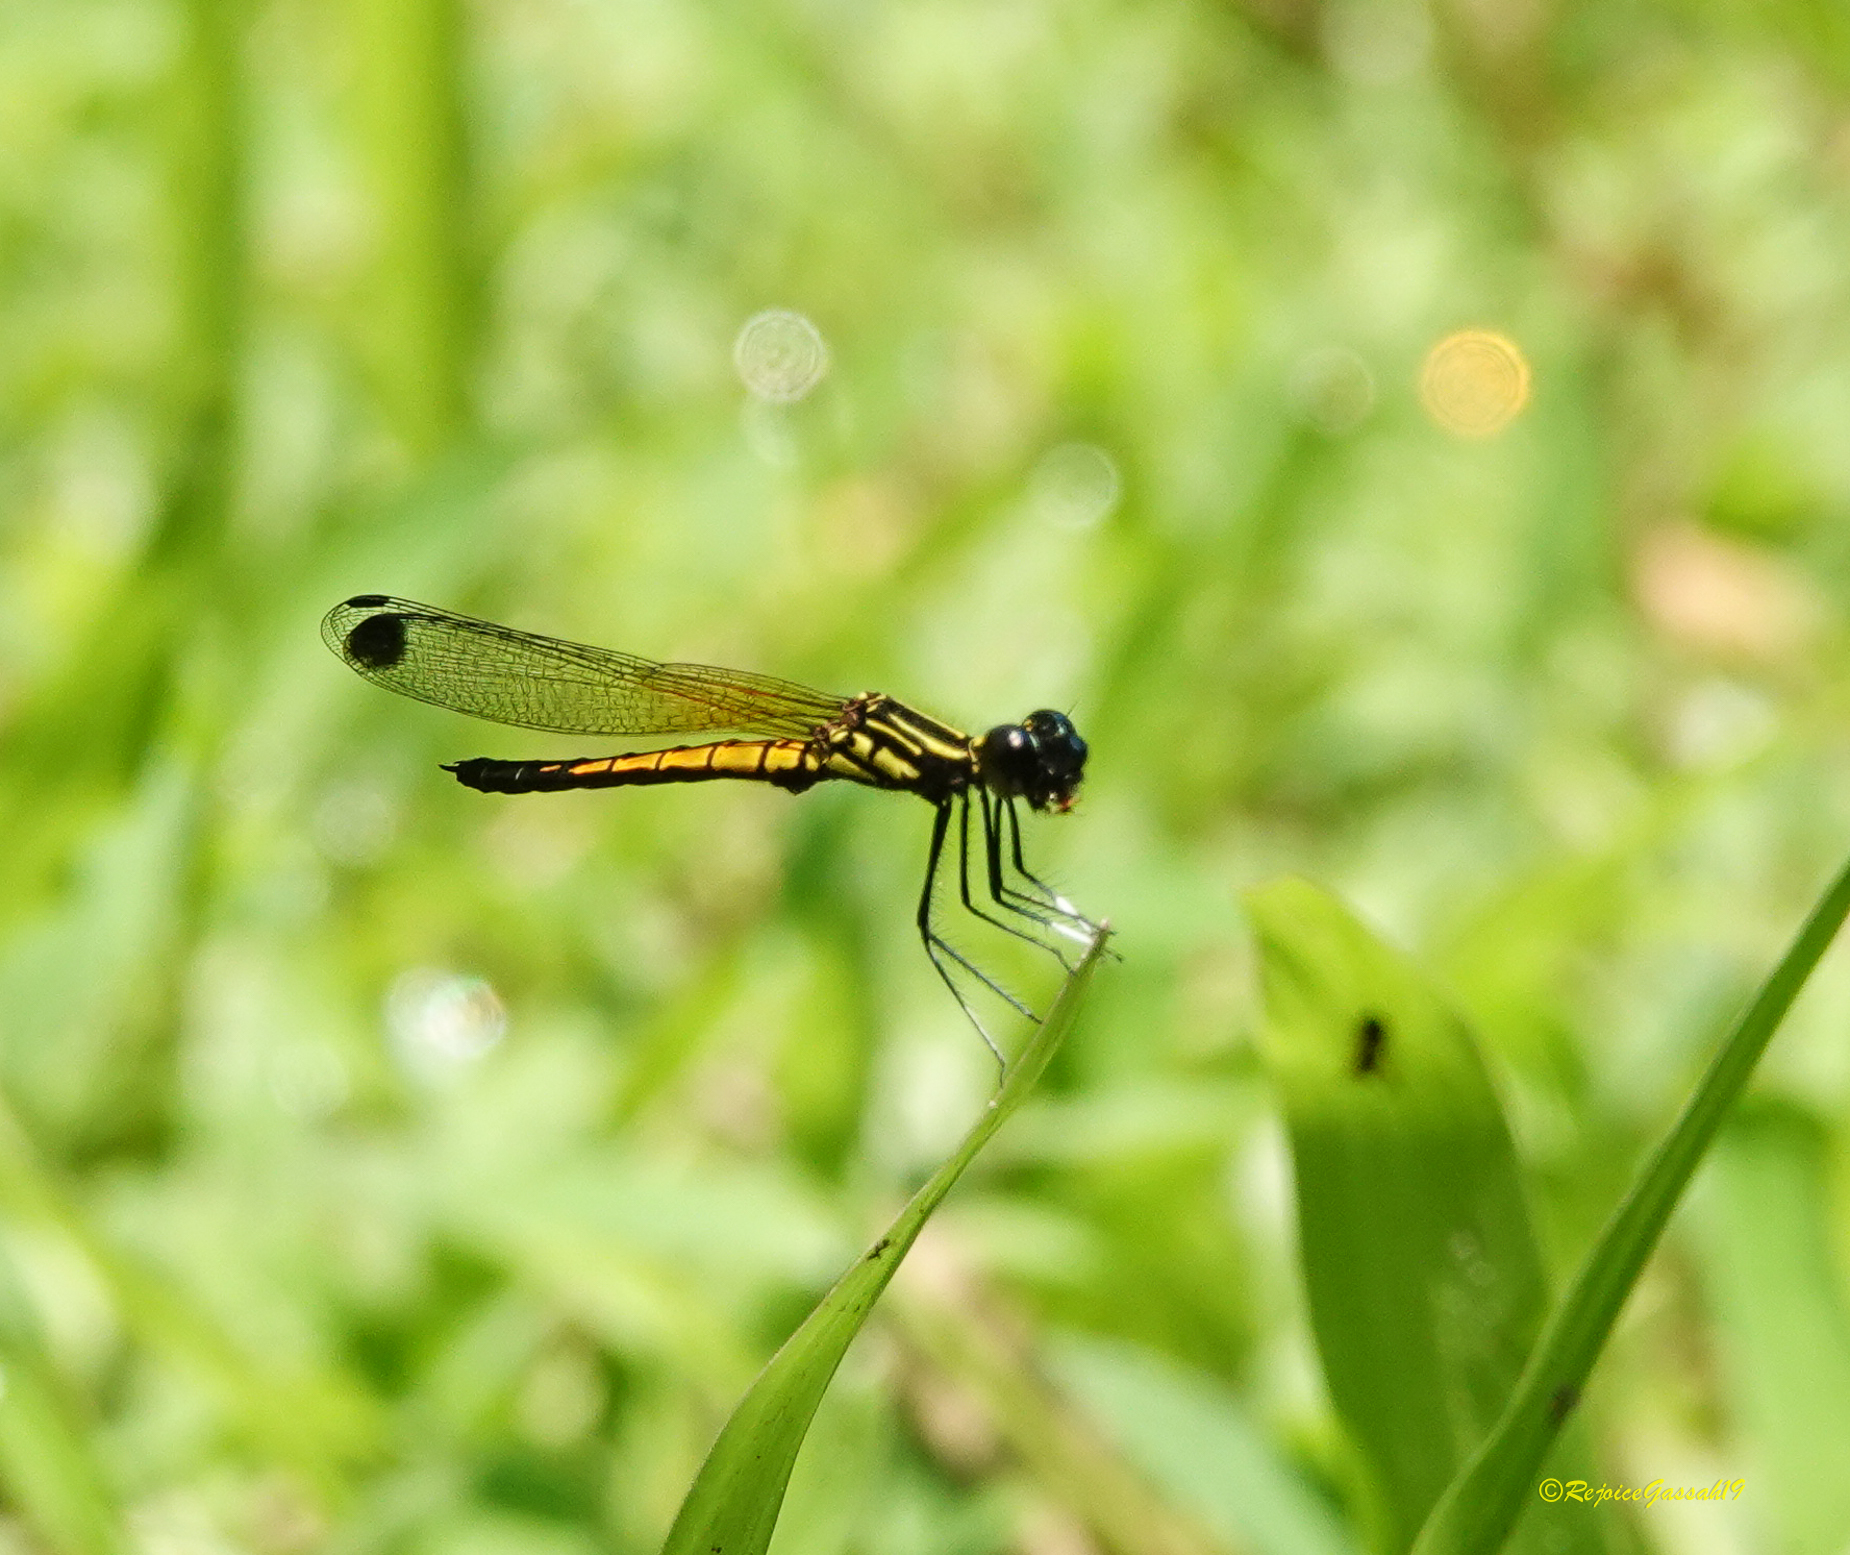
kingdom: Animalia
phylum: Arthropoda
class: Insecta
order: Odonata
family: Chlorocyphidae
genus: Libellago
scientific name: Libellago lineata
